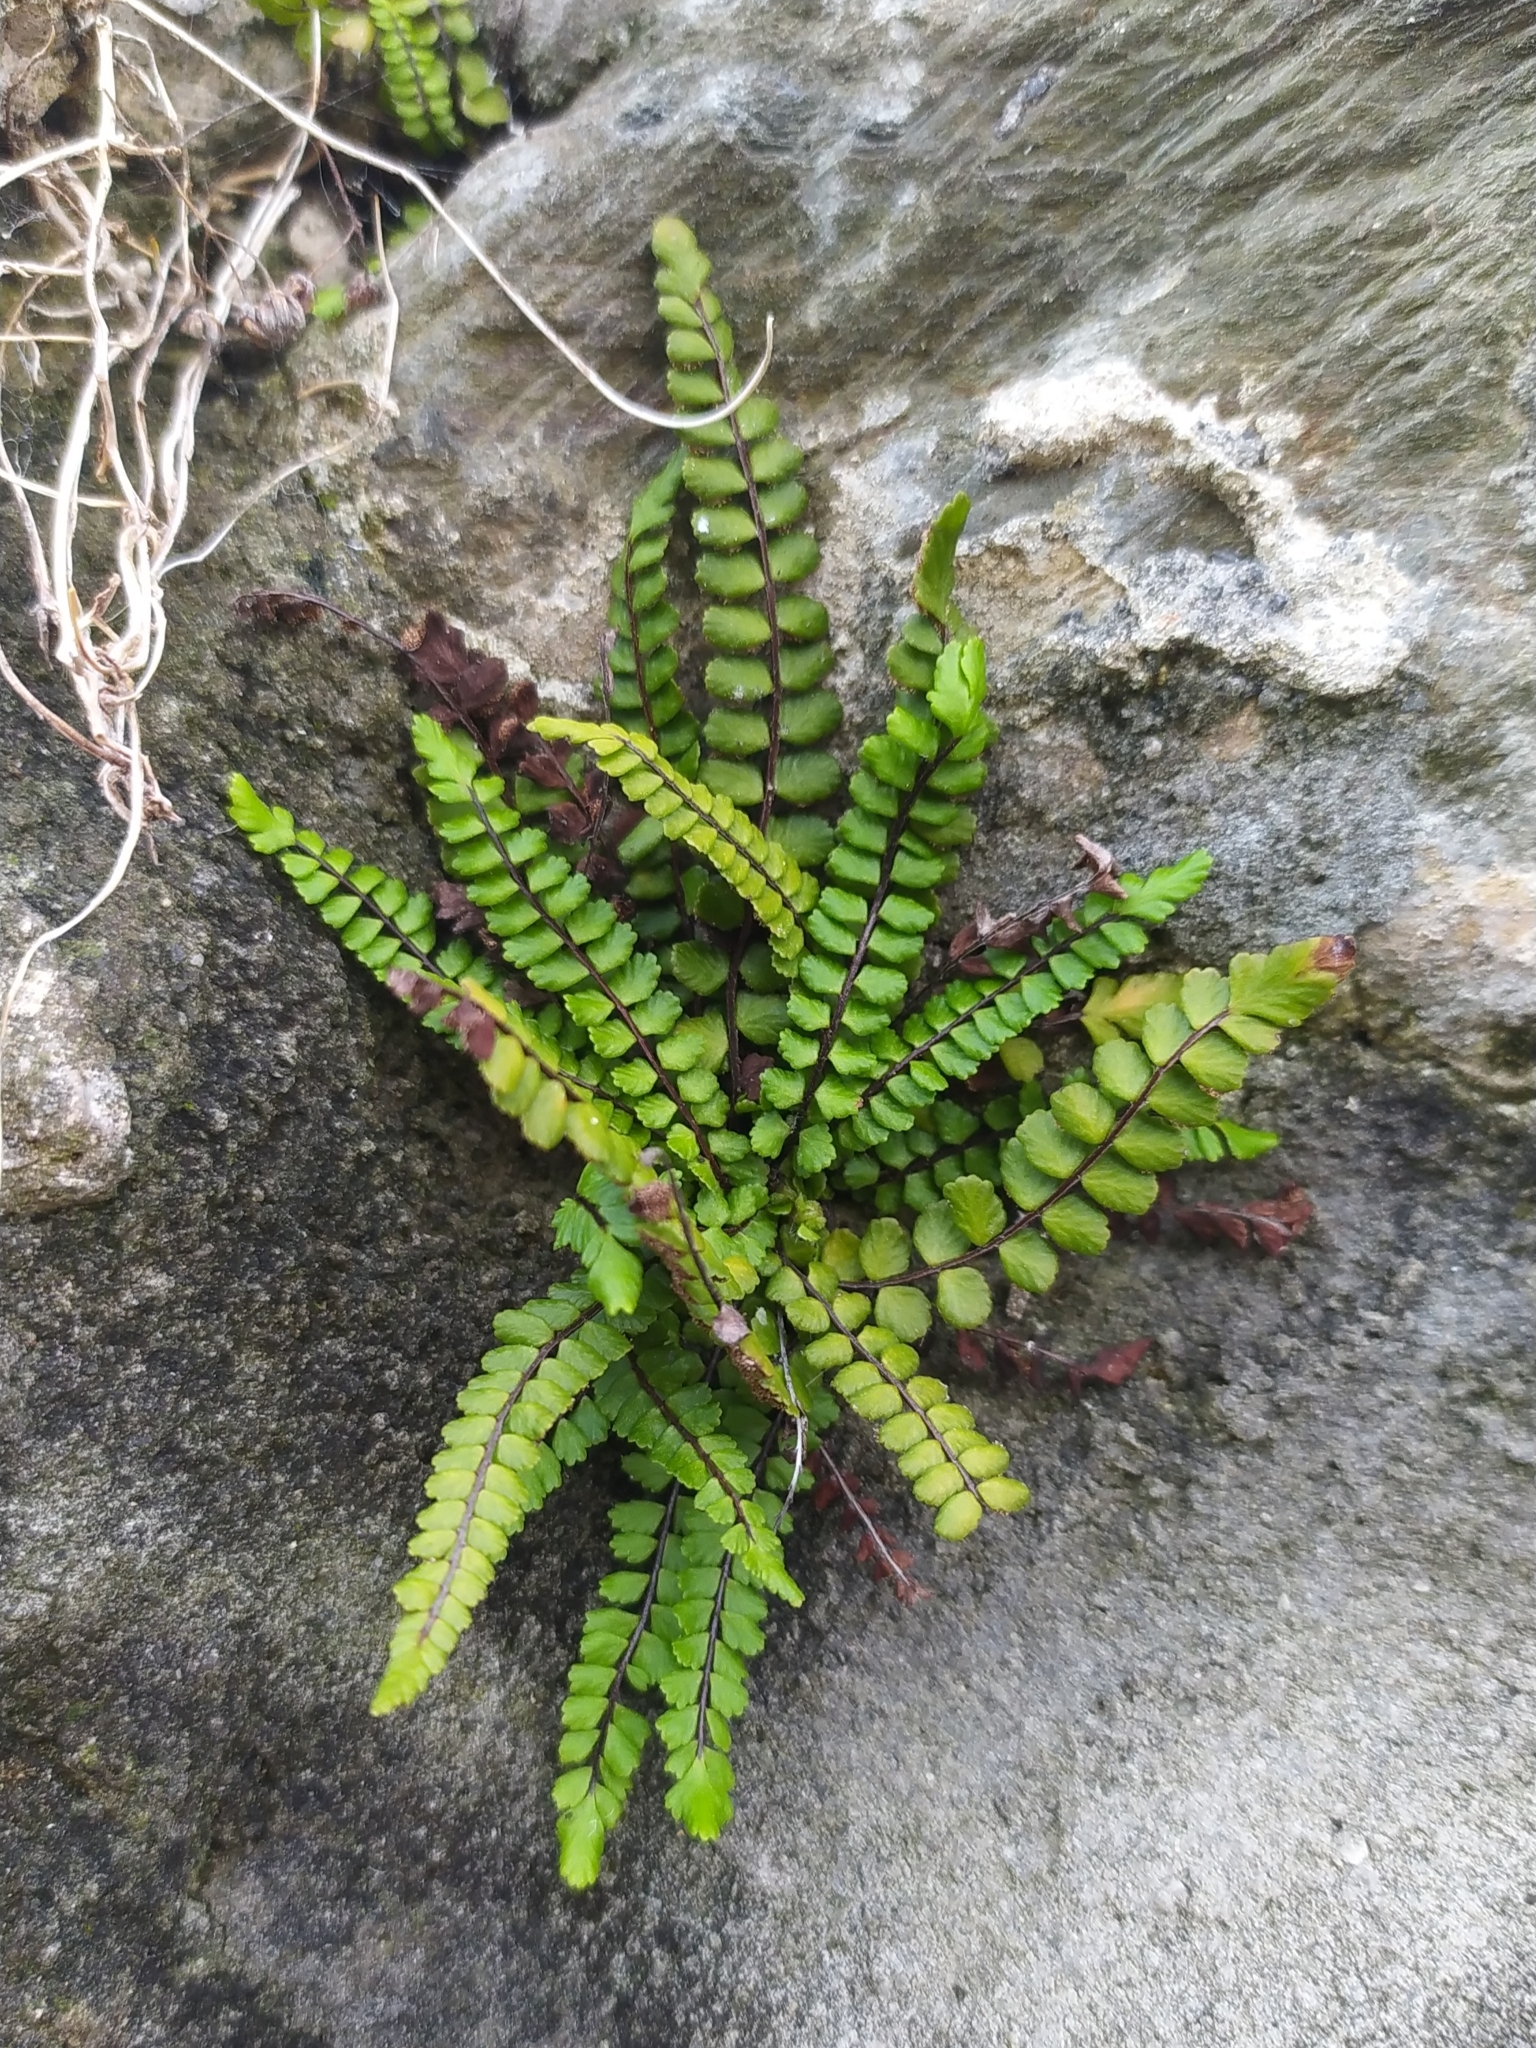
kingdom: Plantae
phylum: Tracheophyta
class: Polypodiopsida
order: Polypodiales
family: Aspleniaceae
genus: Asplenium
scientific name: Asplenium trichomanes
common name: Maidenhair spleenwort
